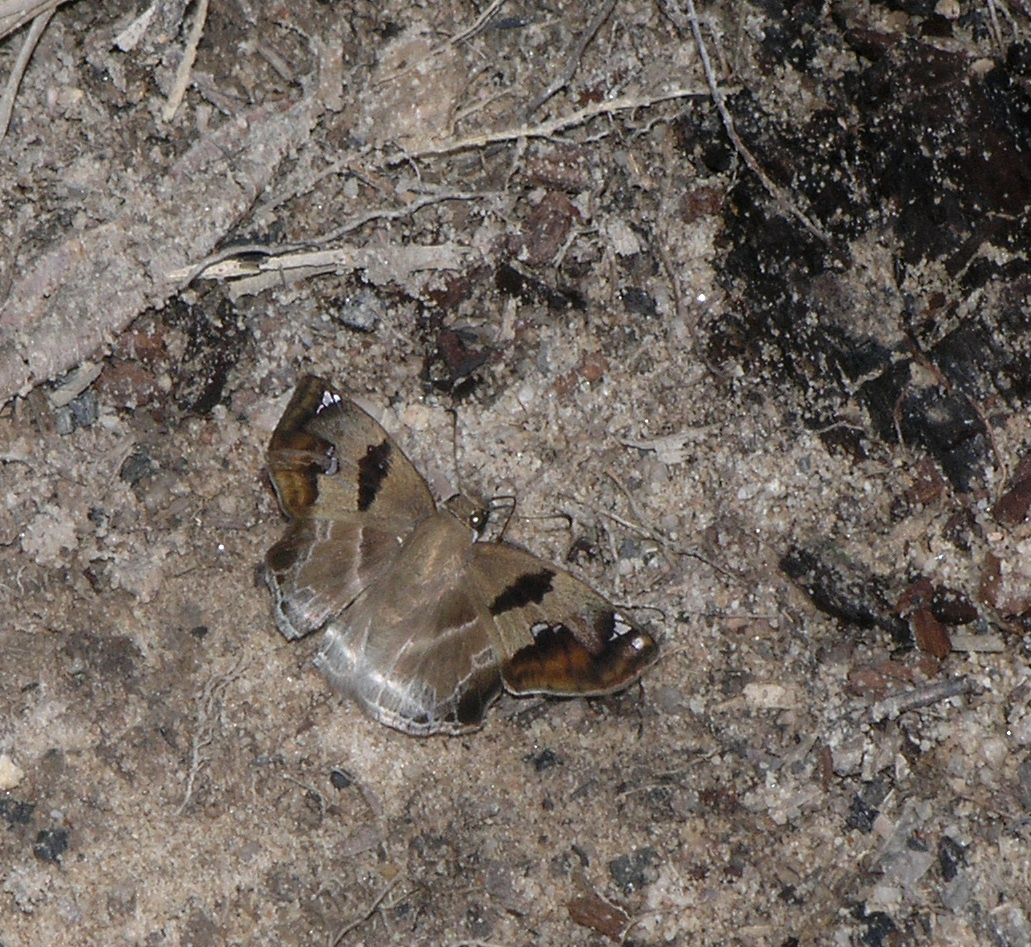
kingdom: Animalia
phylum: Arthropoda
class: Insecta
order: Lepidoptera
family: Hesperiidae
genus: Odontoptilum
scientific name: Odontoptilum angulata
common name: Chestnut banded angle
